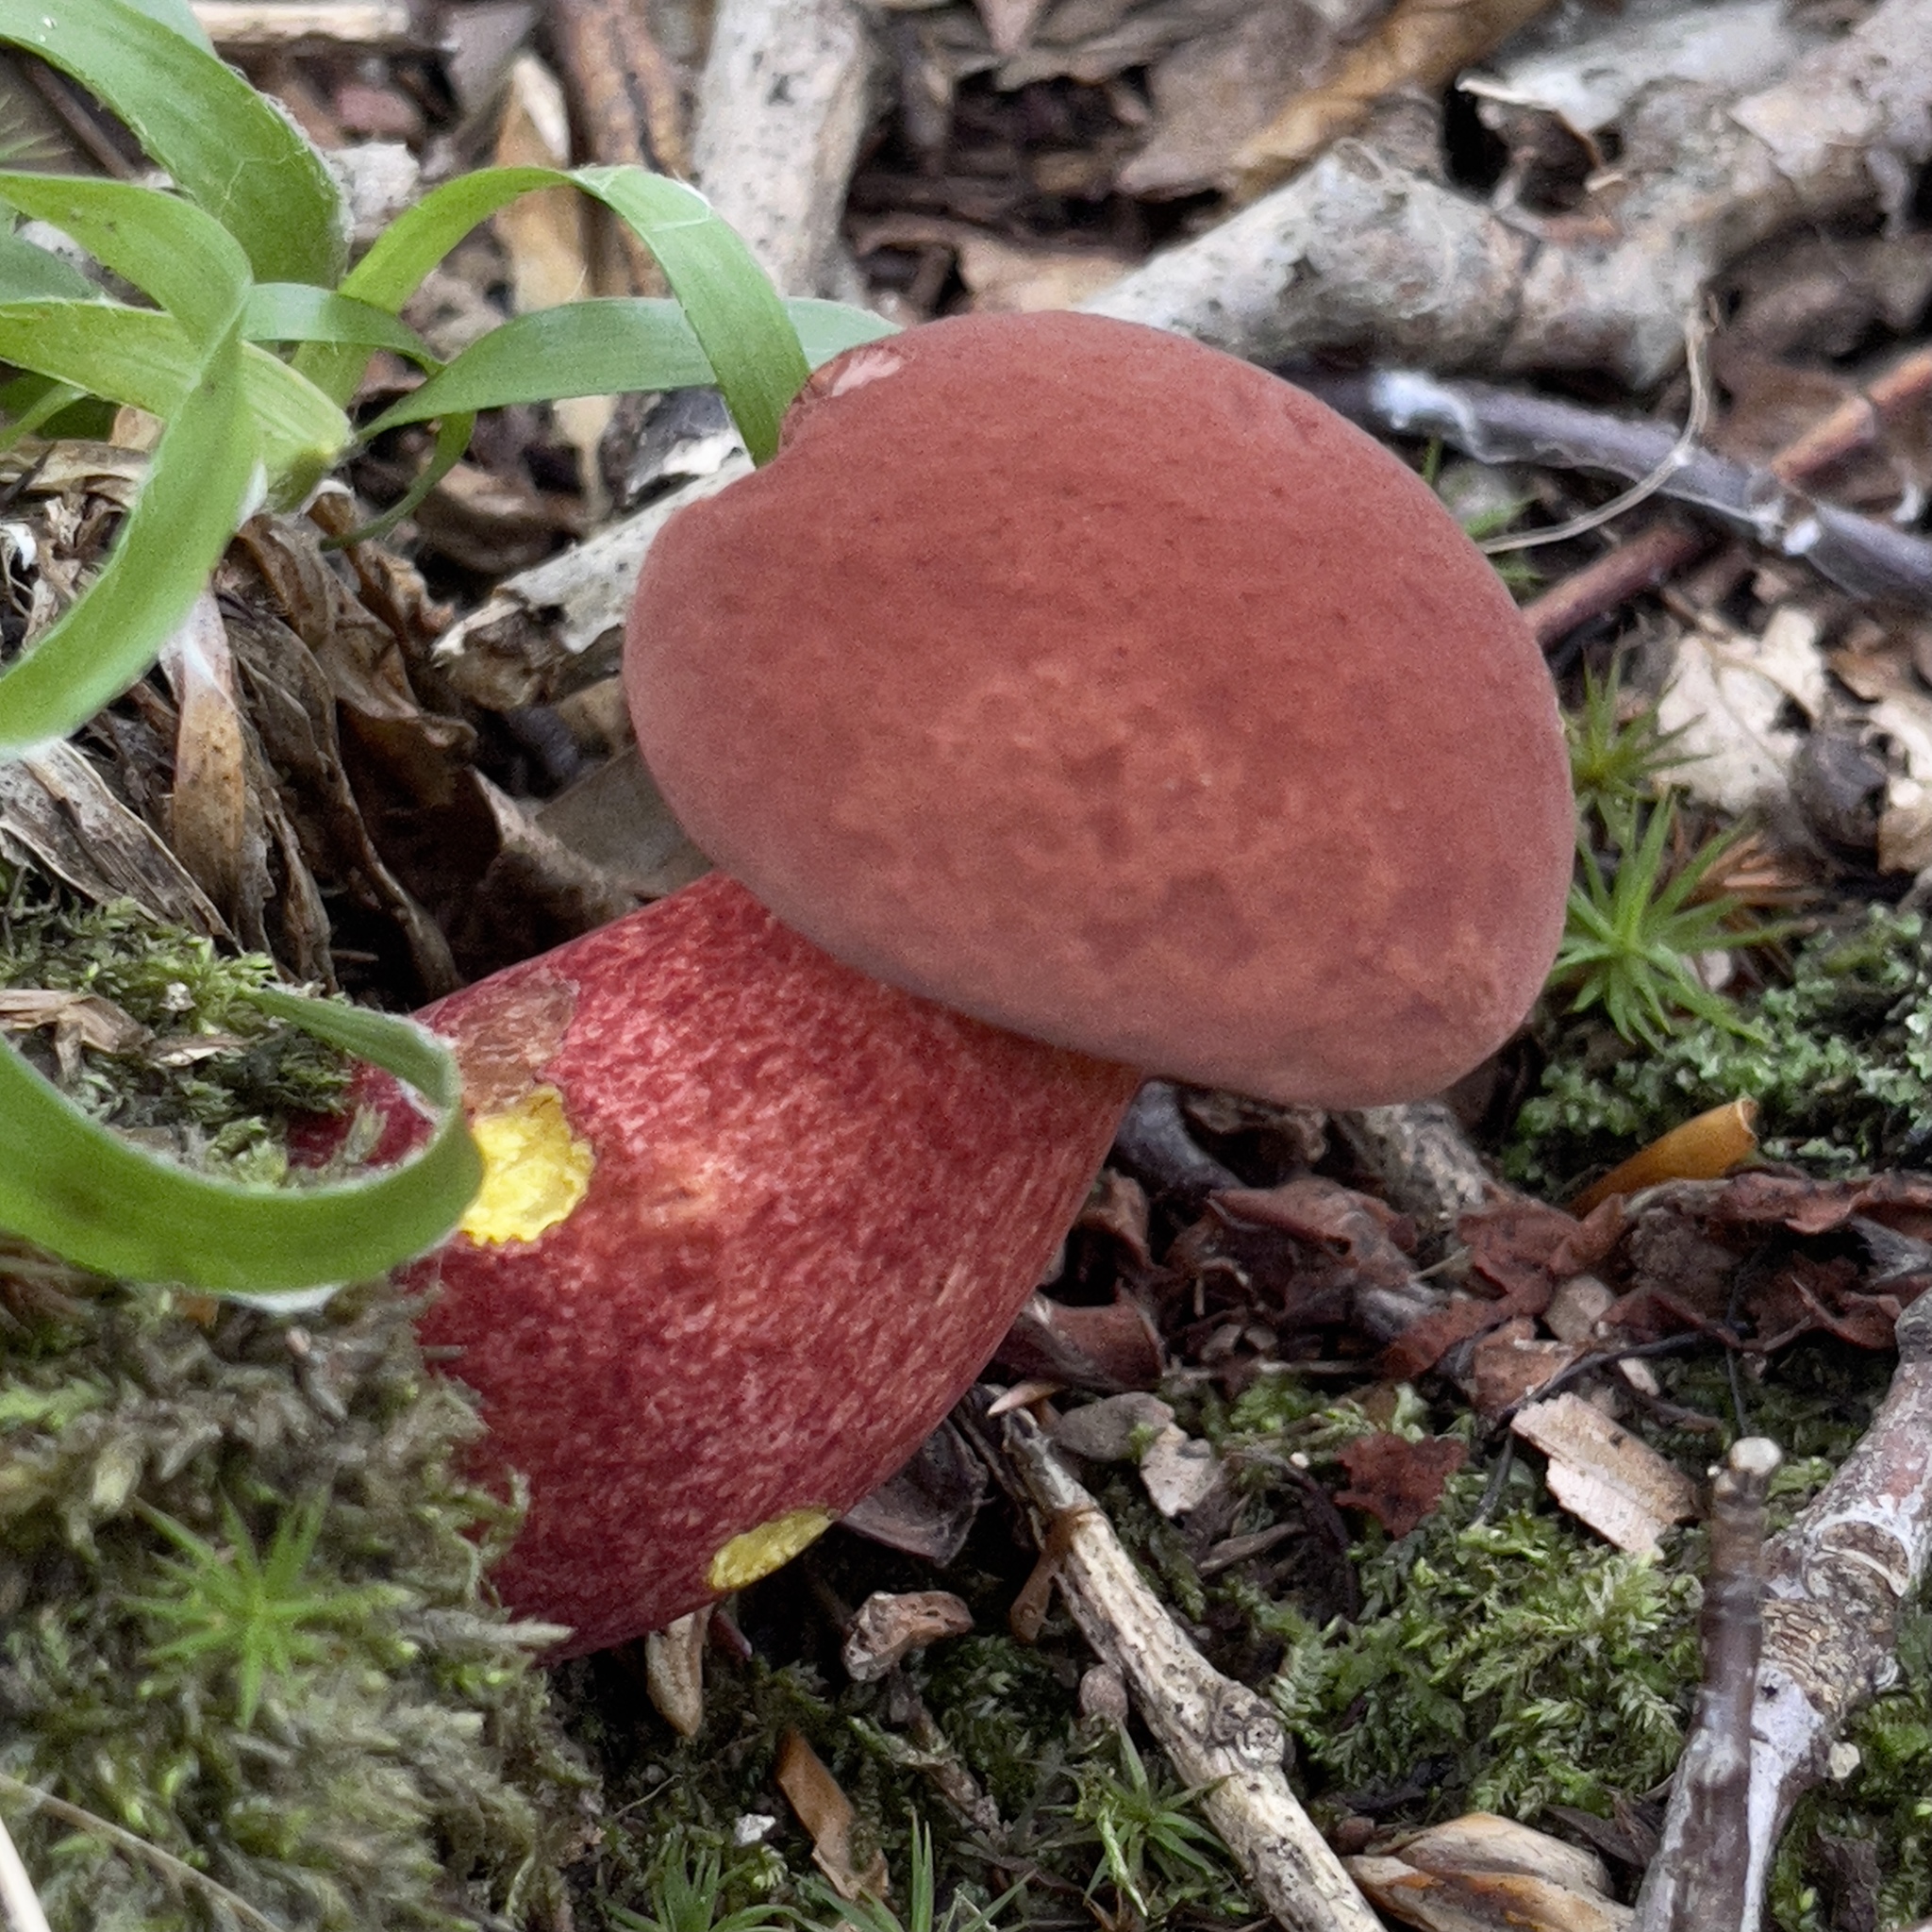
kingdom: Fungi
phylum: Basidiomycota
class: Agaricomycetes
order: Boletales
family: Boletaceae
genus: Baorangia
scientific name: Baorangia bicolor
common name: Two-colored bolete
